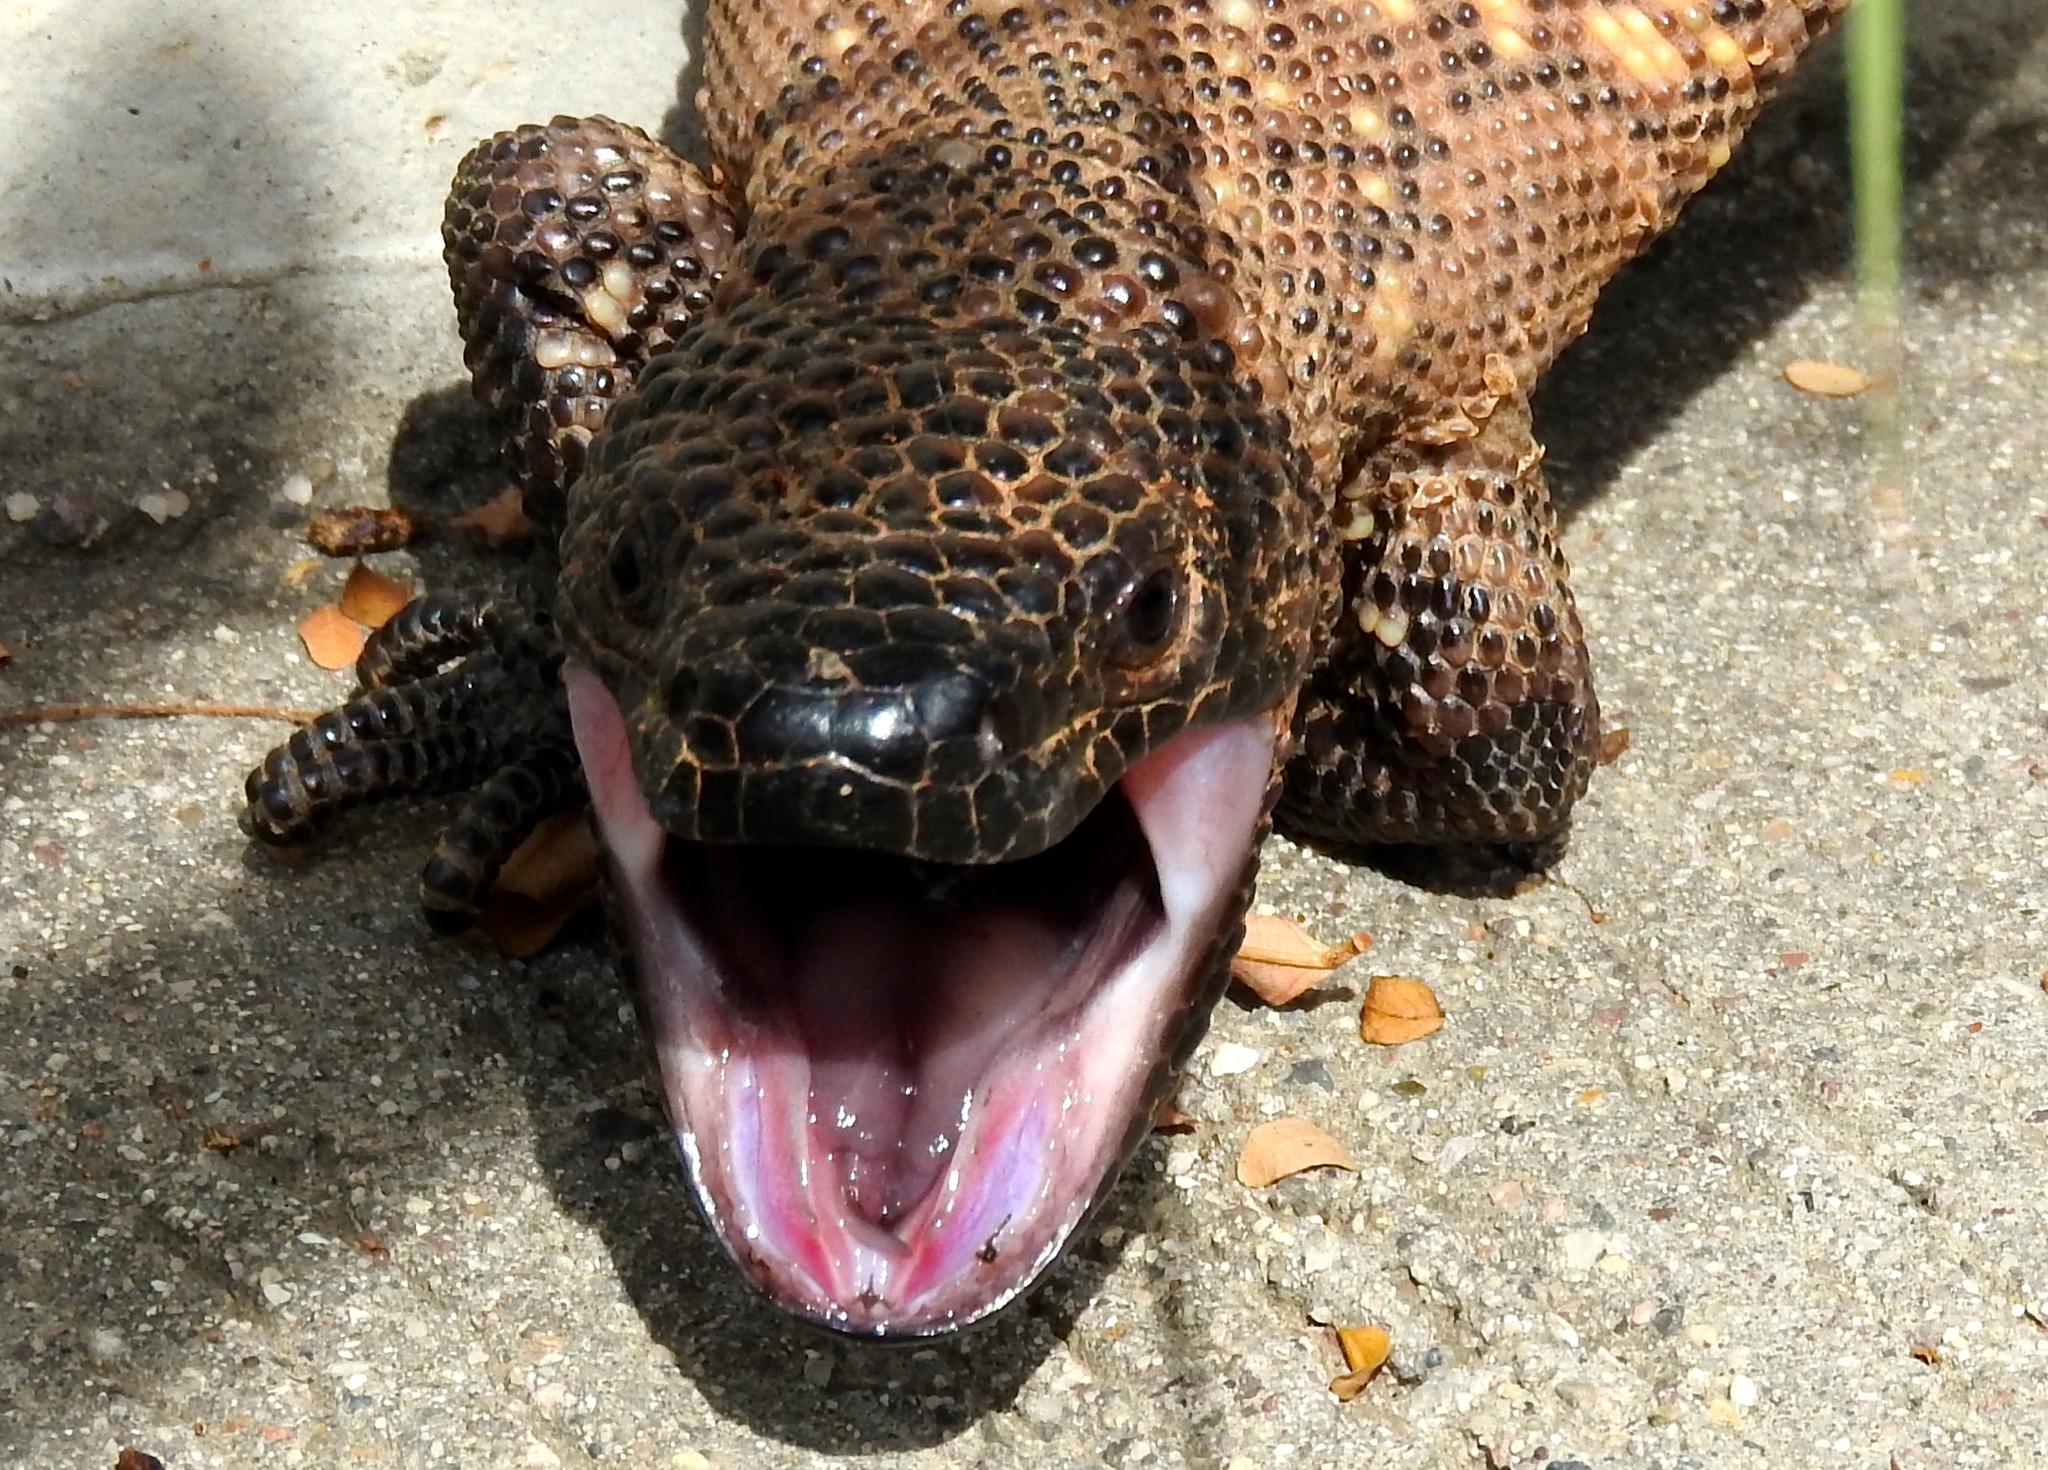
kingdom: Animalia
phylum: Chordata
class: Squamata
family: Helodermatidae
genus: Heloderma
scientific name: Heloderma horridum
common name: Mexican beaded lizard
